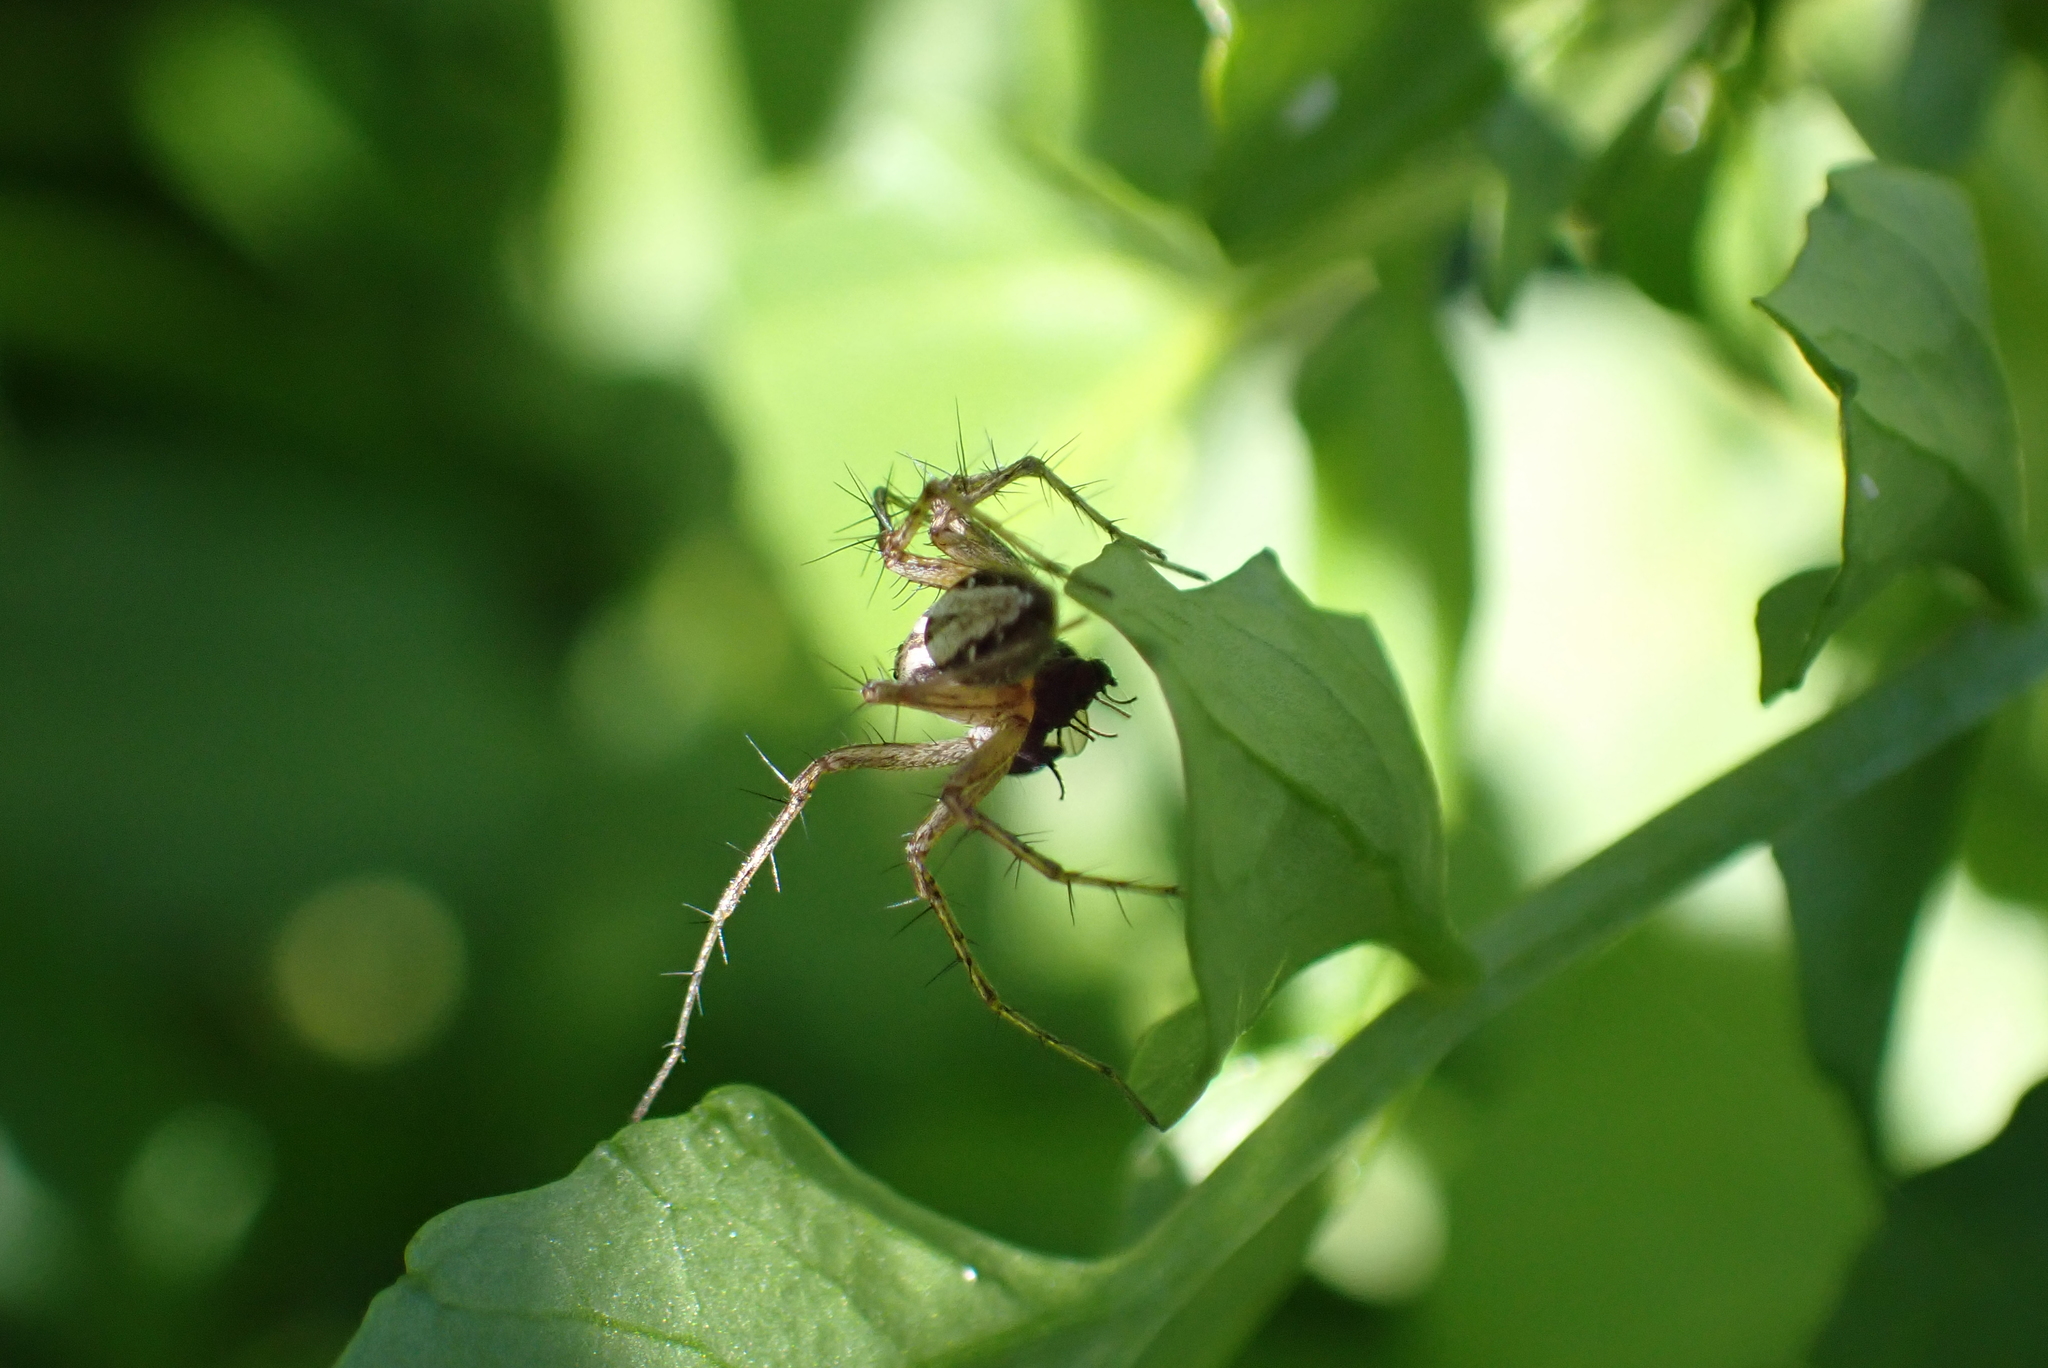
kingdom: Animalia
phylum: Arthropoda
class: Arachnida
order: Araneae
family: Oxyopidae
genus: Oxyopes
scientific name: Oxyopes gracilipes
